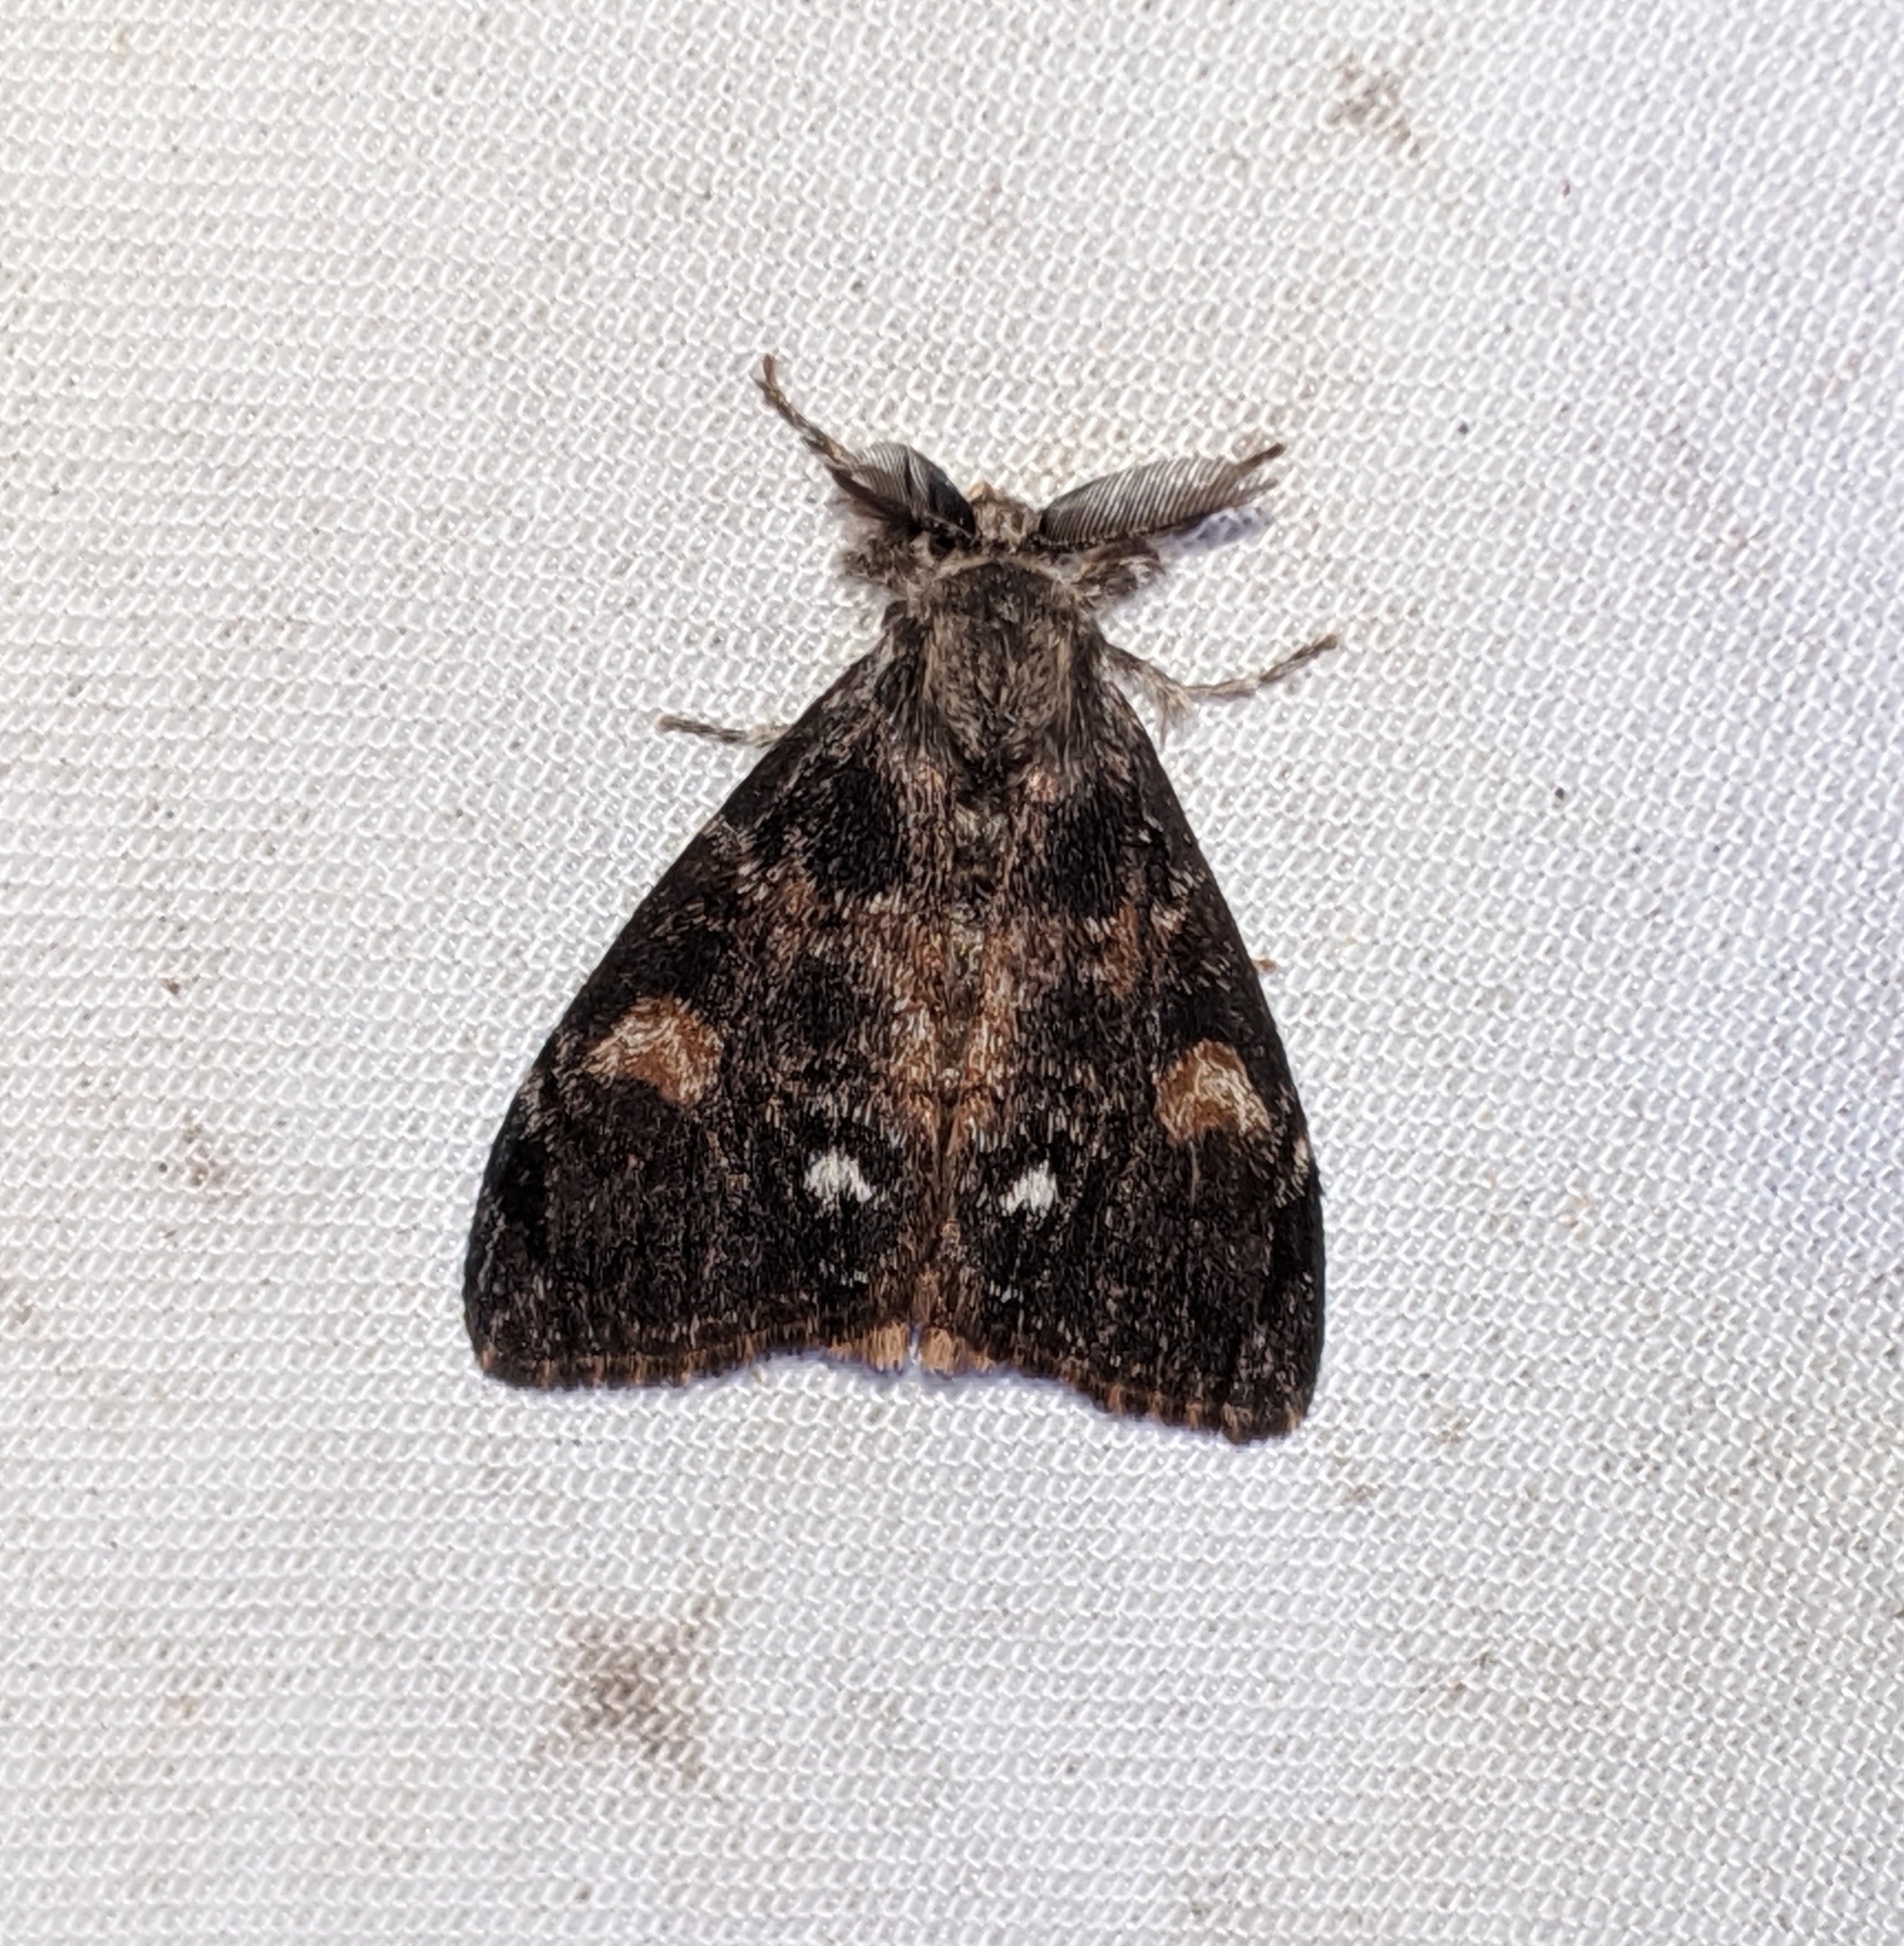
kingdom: Animalia
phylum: Arthropoda
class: Insecta
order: Lepidoptera
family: Erebidae
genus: Orgyia
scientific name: Orgyia pseudotsugata
